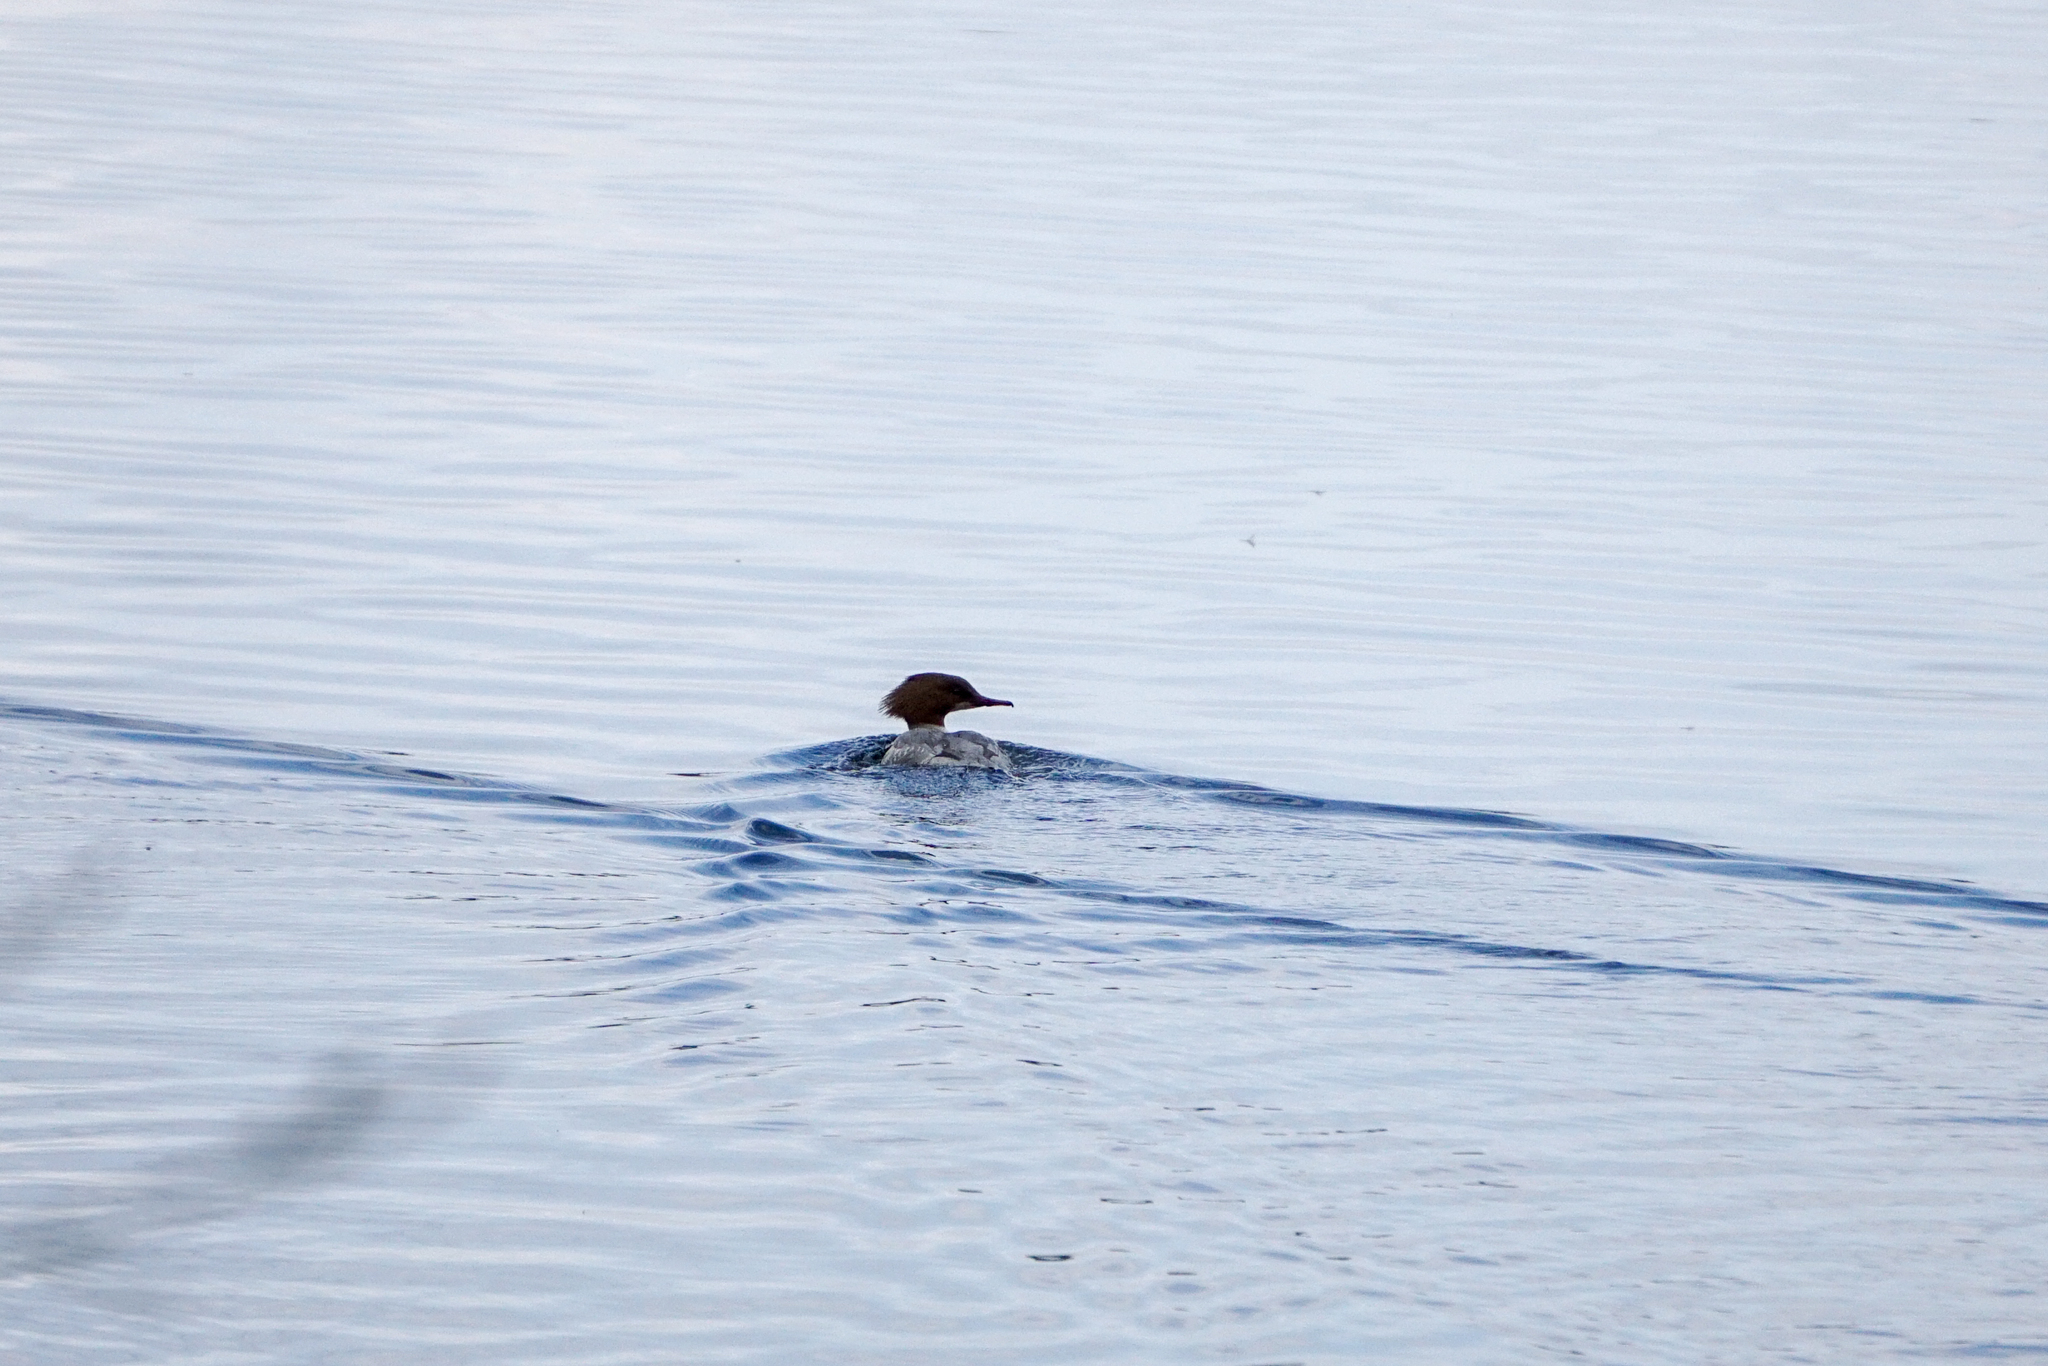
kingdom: Animalia
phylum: Chordata
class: Aves
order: Anseriformes
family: Anatidae
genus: Mergus
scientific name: Mergus merganser
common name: Common merganser
